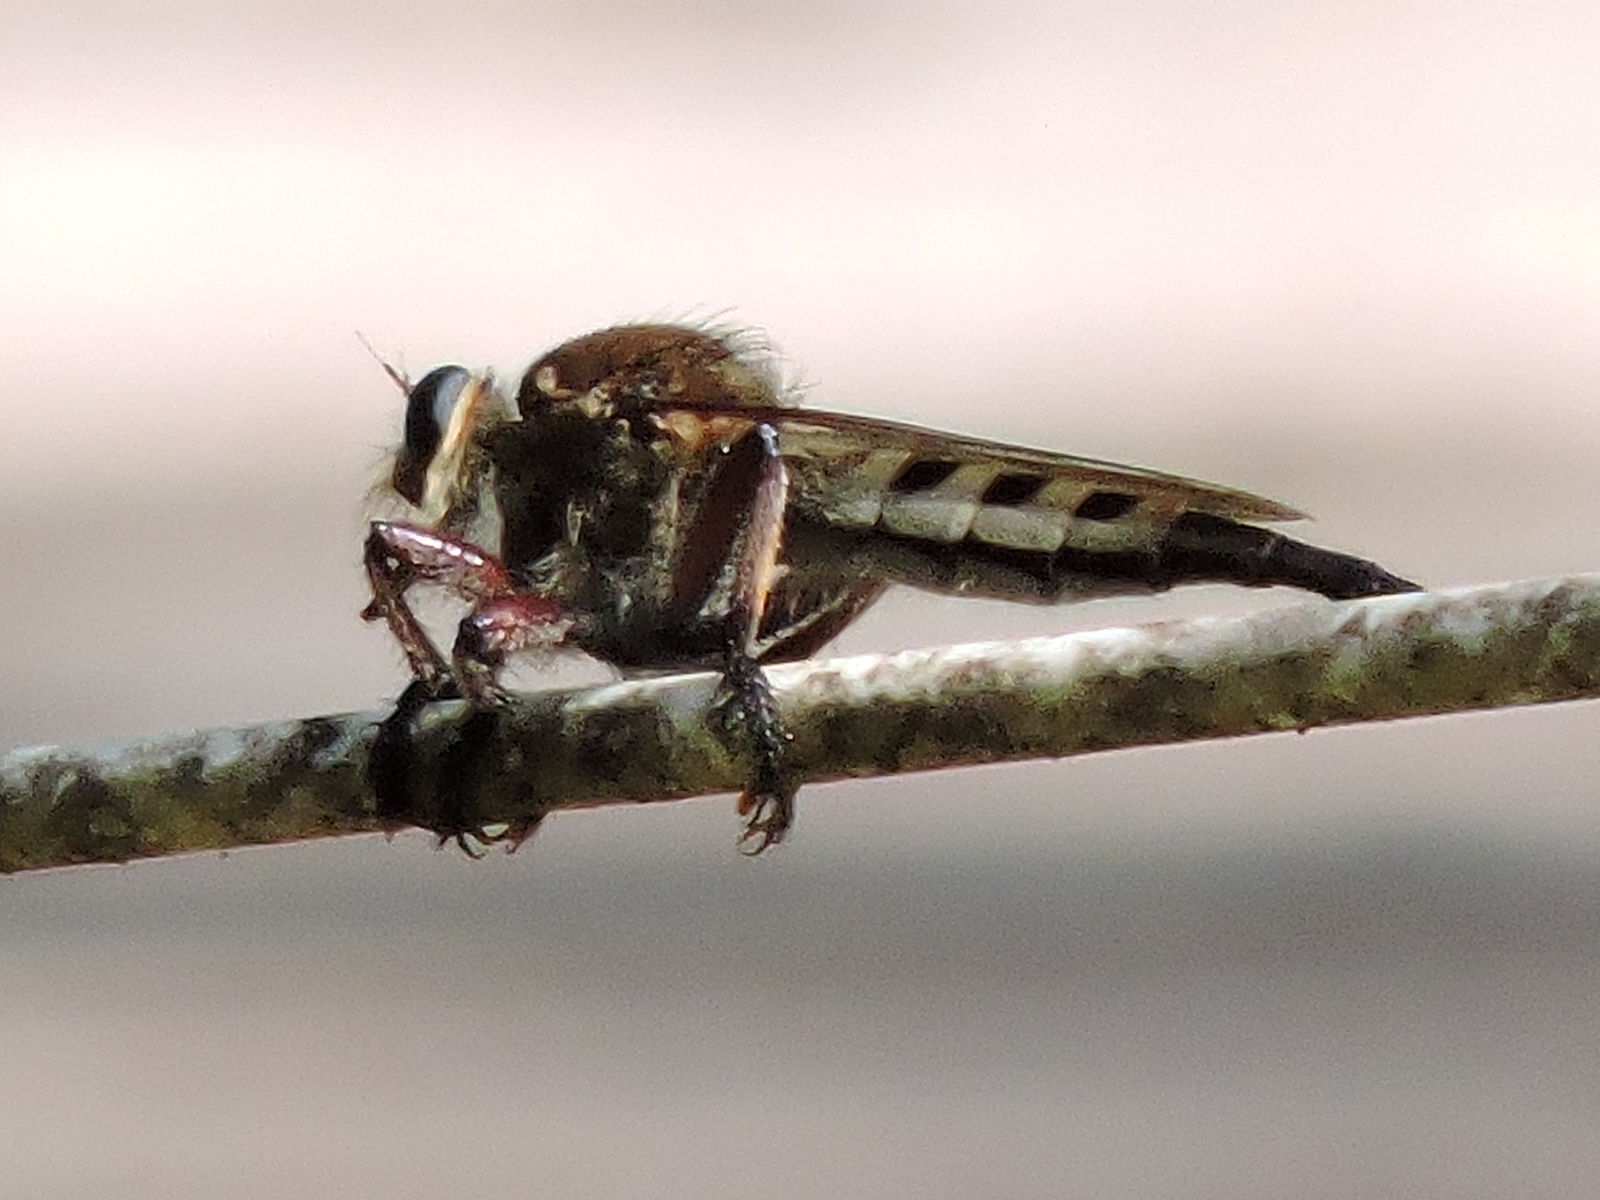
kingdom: Animalia
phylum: Arthropoda
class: Insecta
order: Diptera
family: Asilidae
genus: Promachus
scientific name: Promachus hinei
